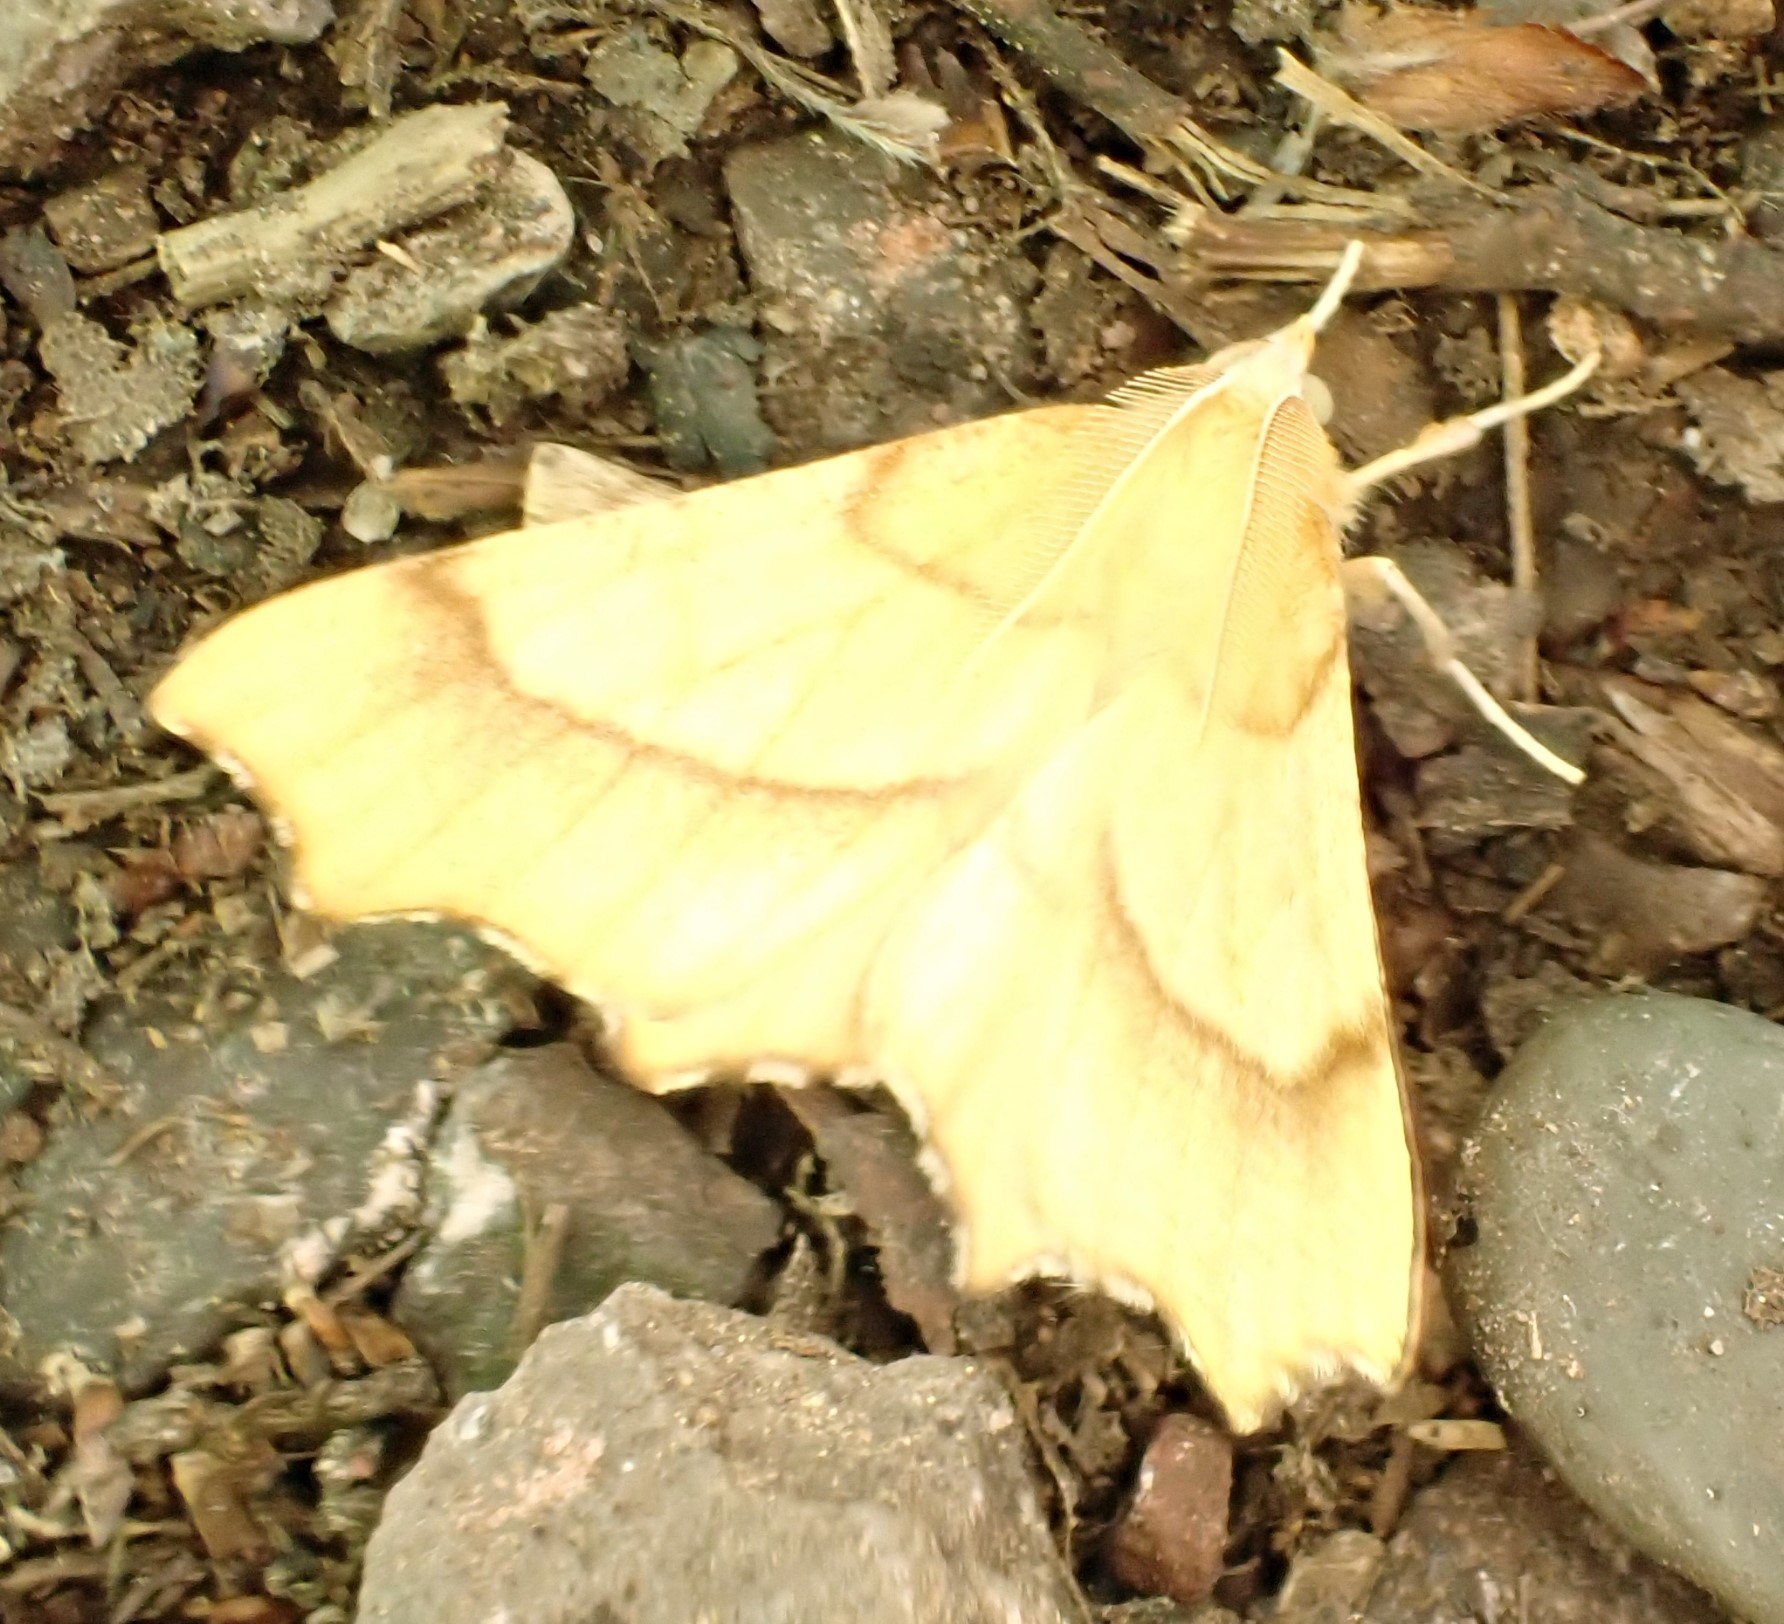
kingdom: Animalia
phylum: Arthropoda
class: Insecta
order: Lepidoptera
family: Geometridae
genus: Ennomos
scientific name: Ennomos quercinaria
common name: August thorn
